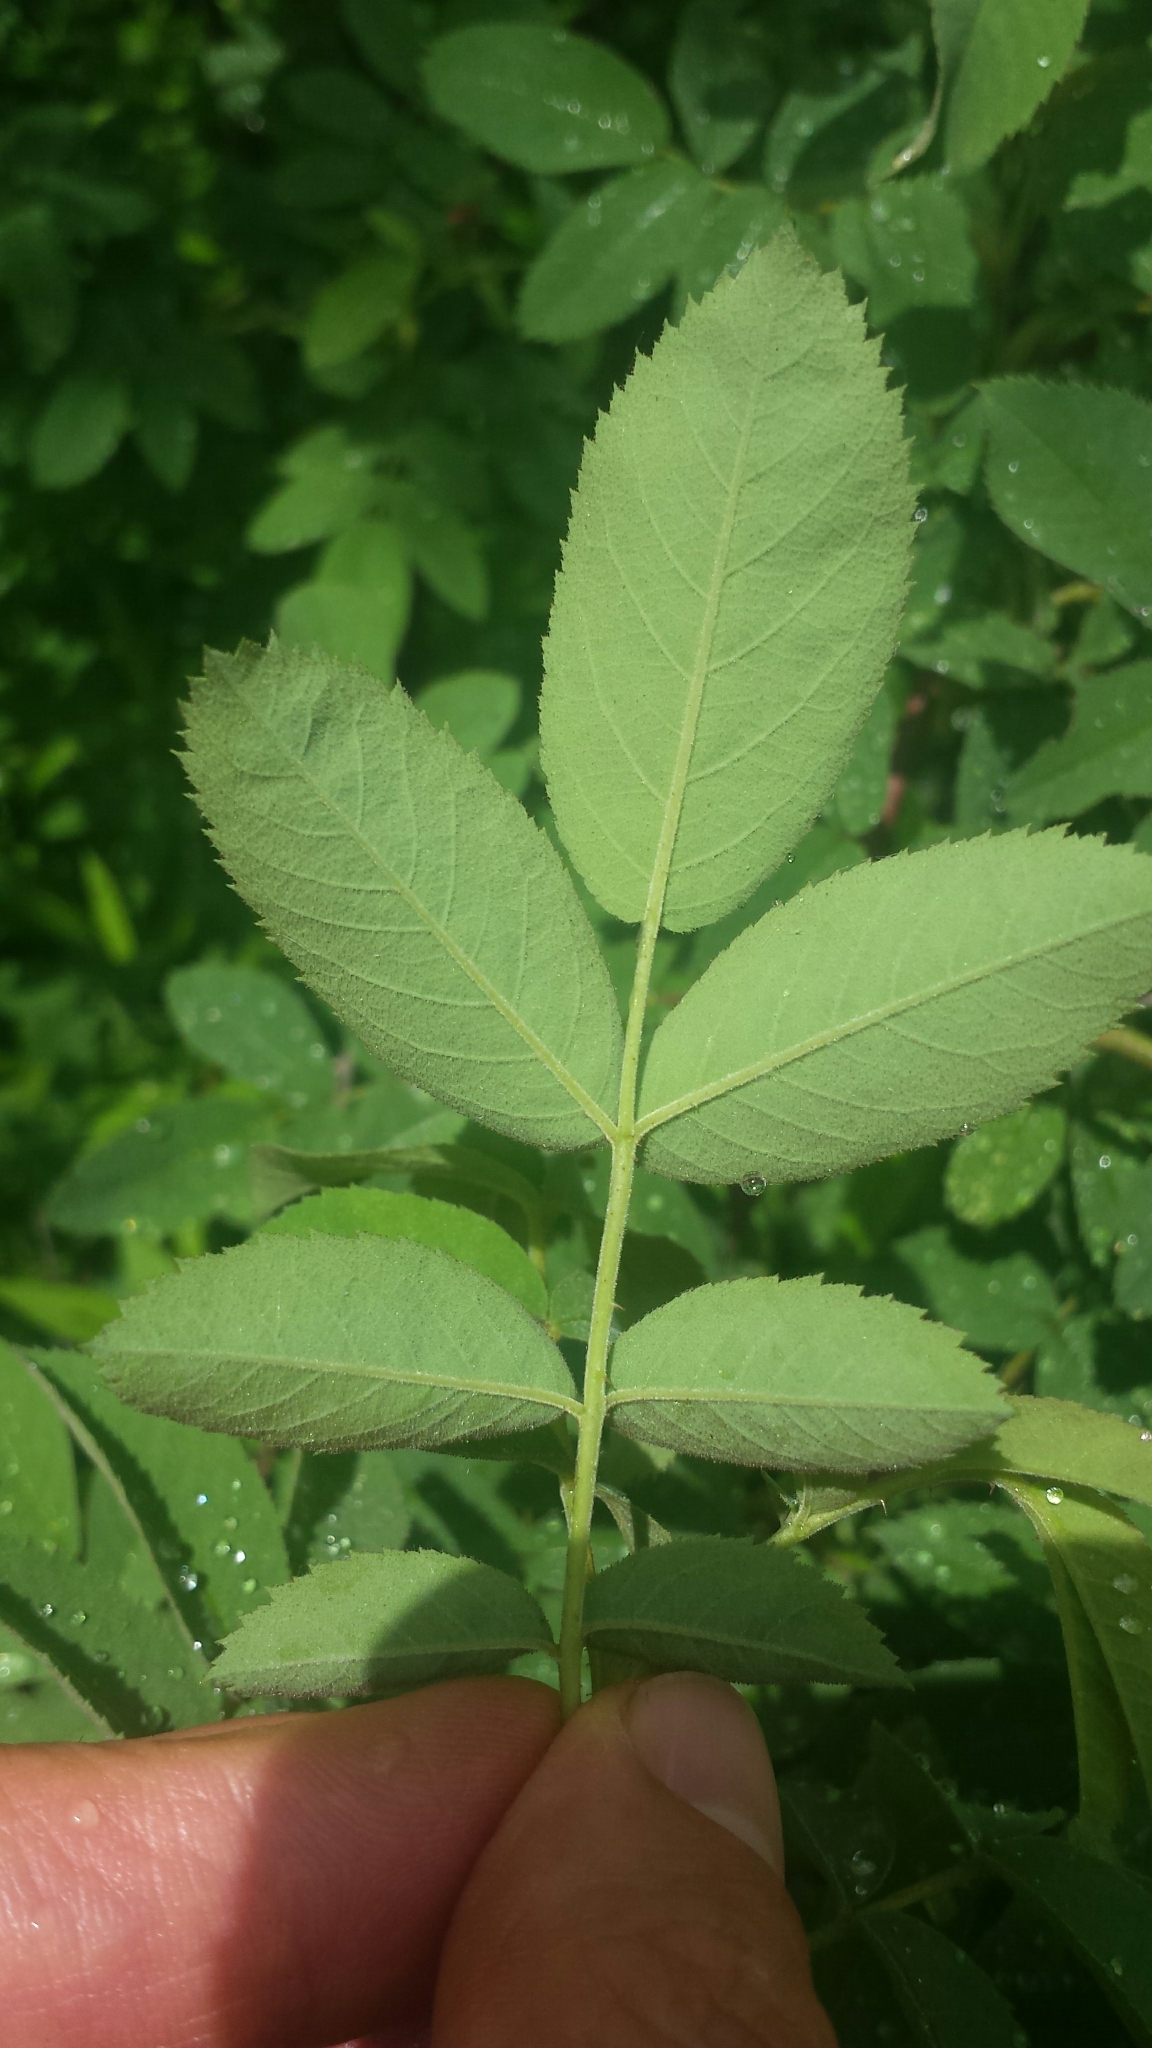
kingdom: Plantae
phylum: Tracheophyta
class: Magnoliopsida
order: Rosales
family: Rosaceae
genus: Rosa
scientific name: Rosa sherardii
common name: Sherard's downy rose
